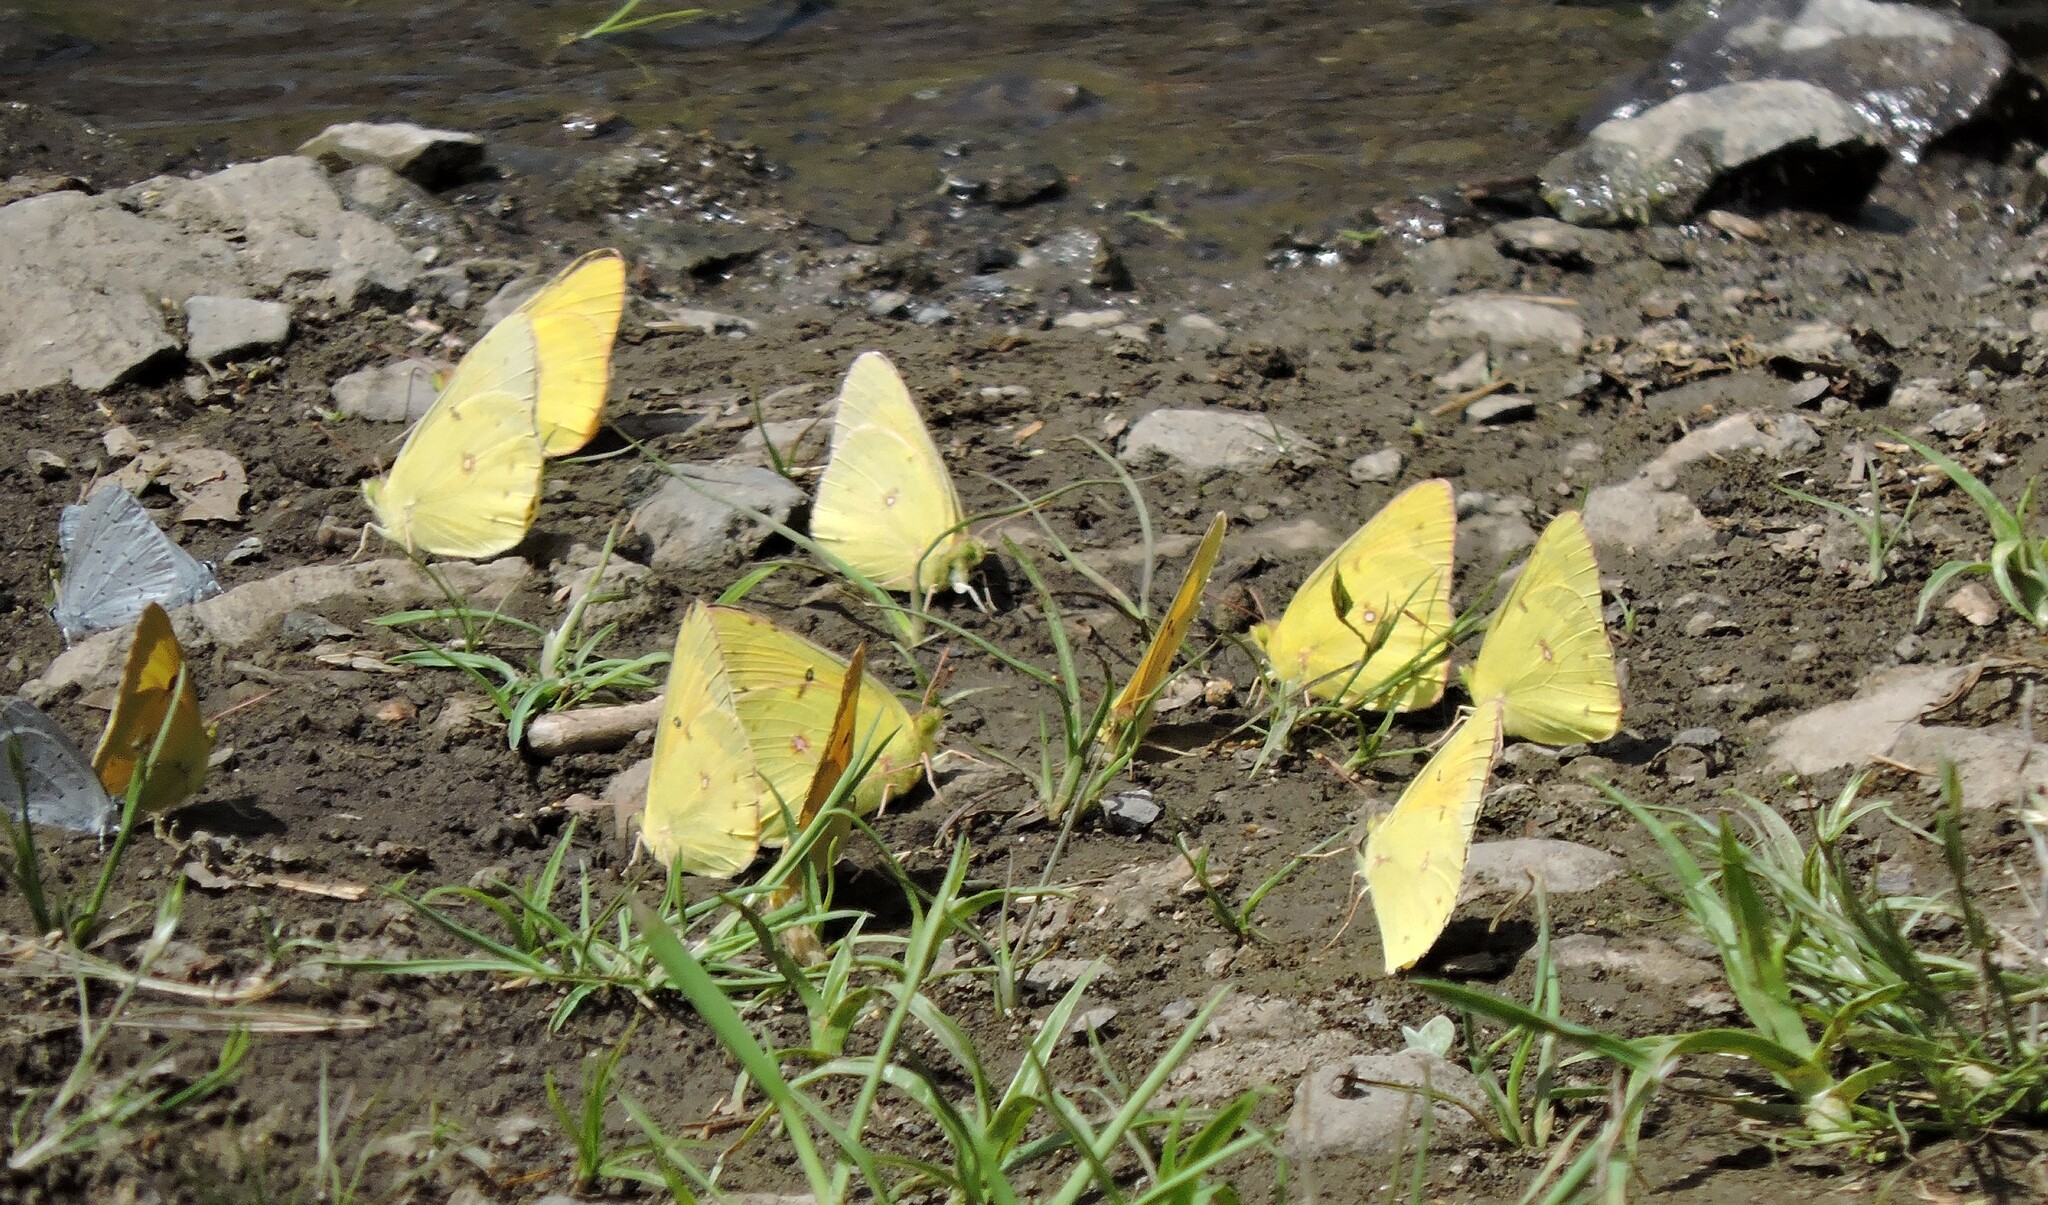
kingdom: Animalia
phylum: Arthropoda
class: Insecta
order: Lepidoptera
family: Pieridae
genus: Colias
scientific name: Colias eurytheme
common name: Alfalfa butterfly
